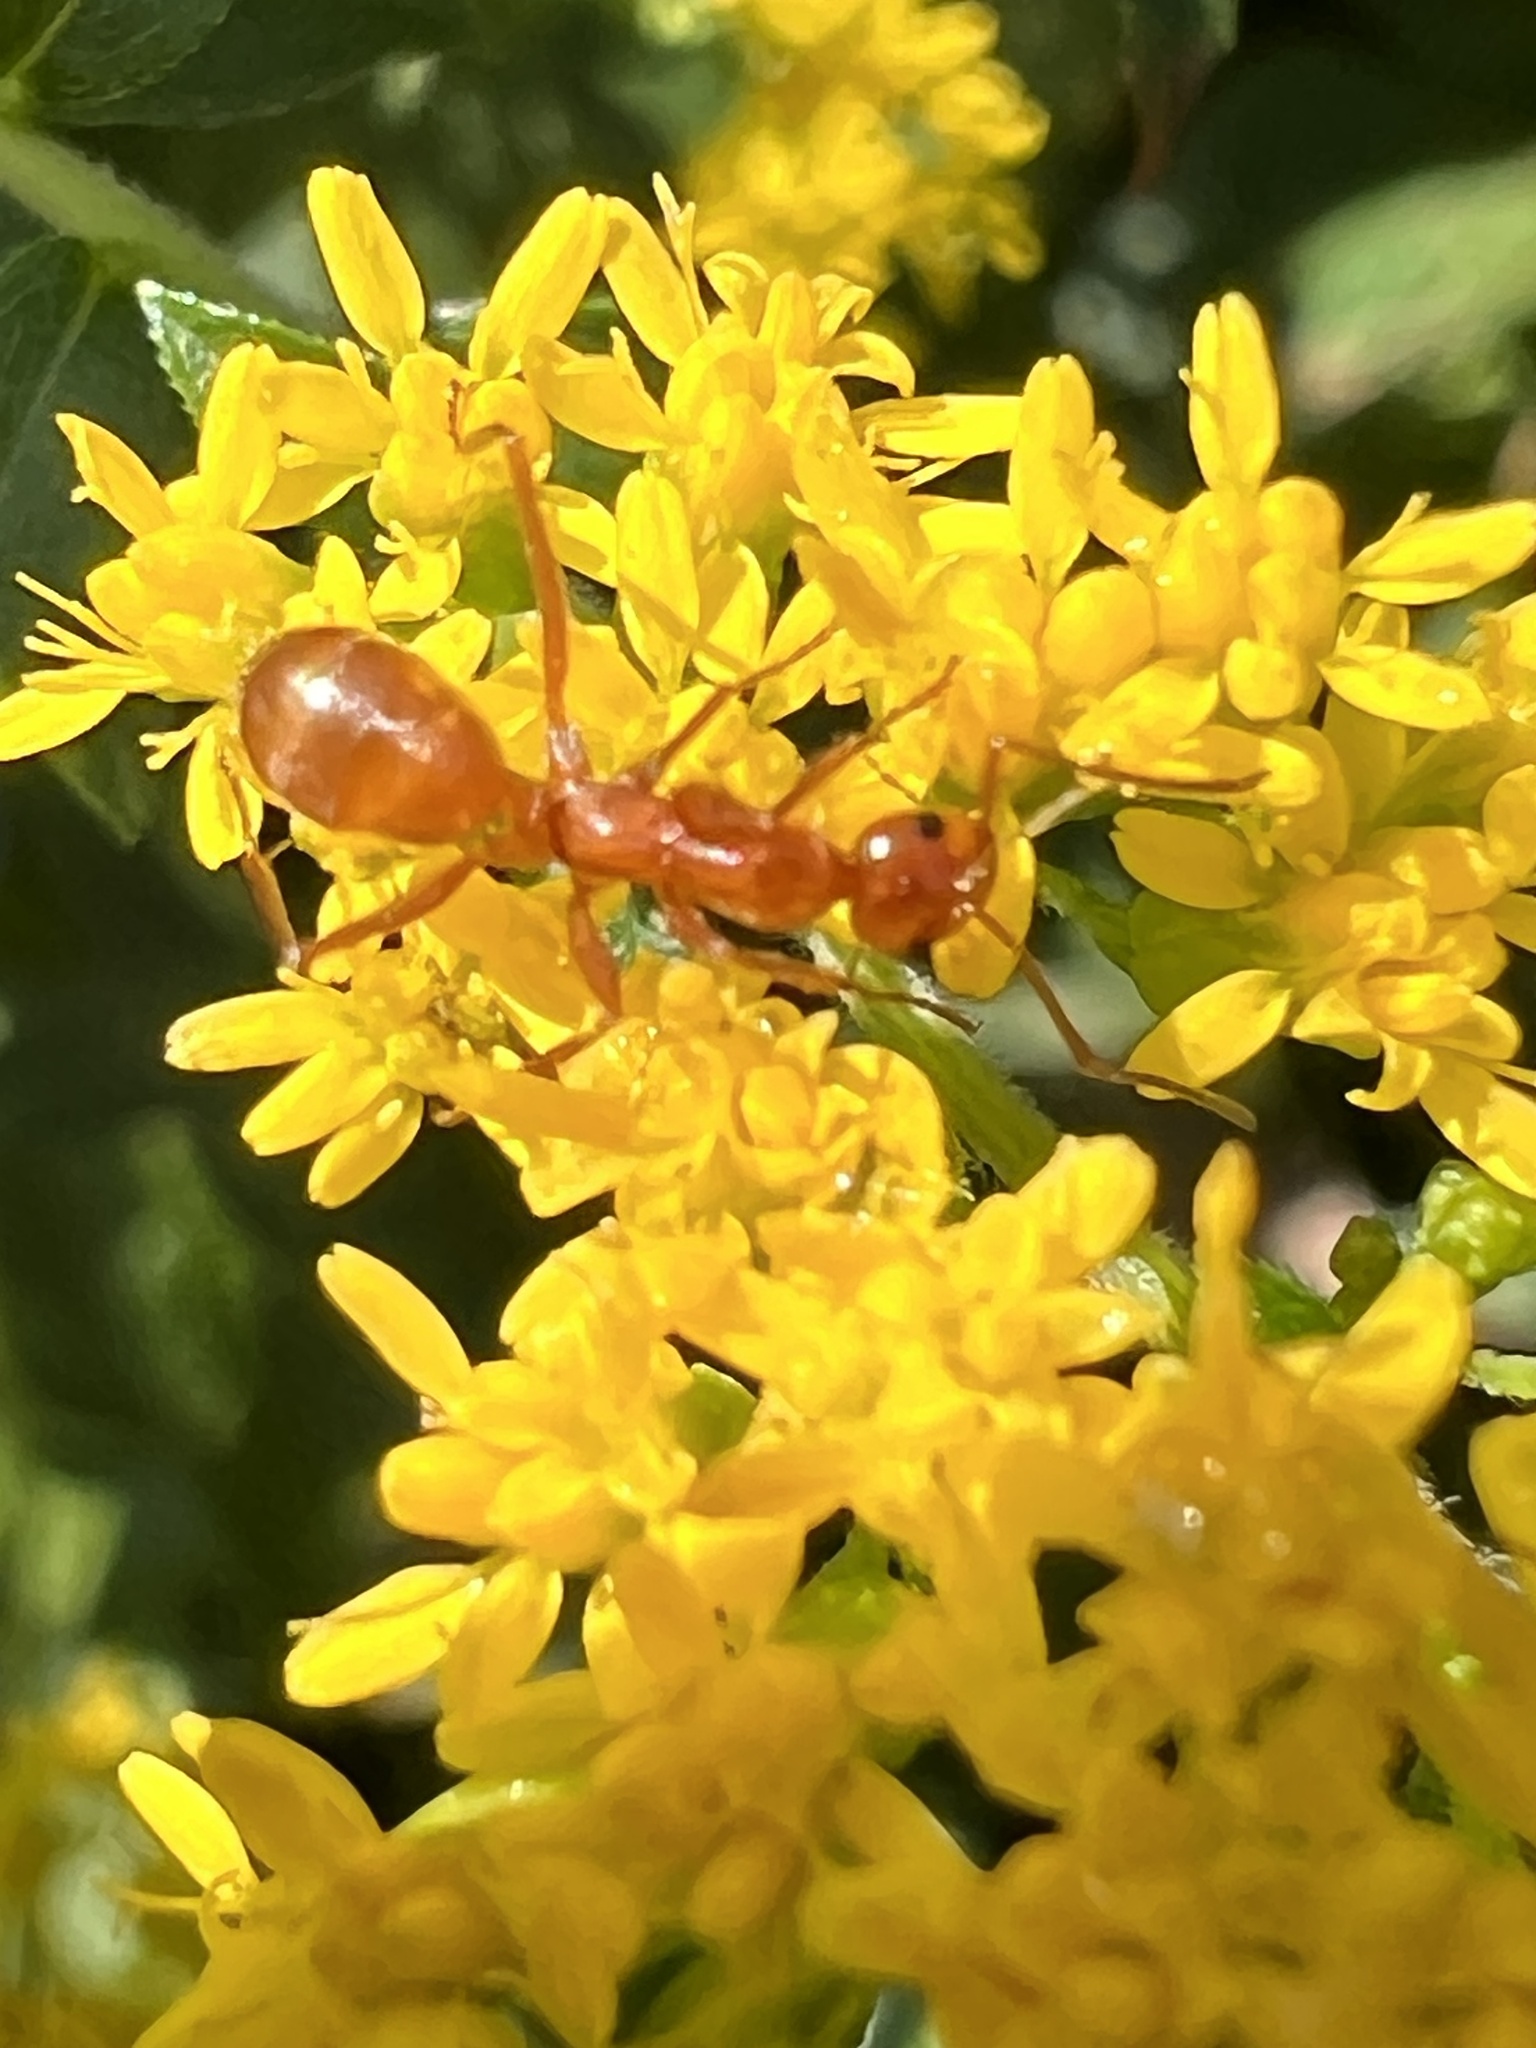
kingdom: Animalia
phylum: Arthropoda
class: Insecta
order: Hymenoptera
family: Formicidae
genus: Formica
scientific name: Formica pallidefulva
